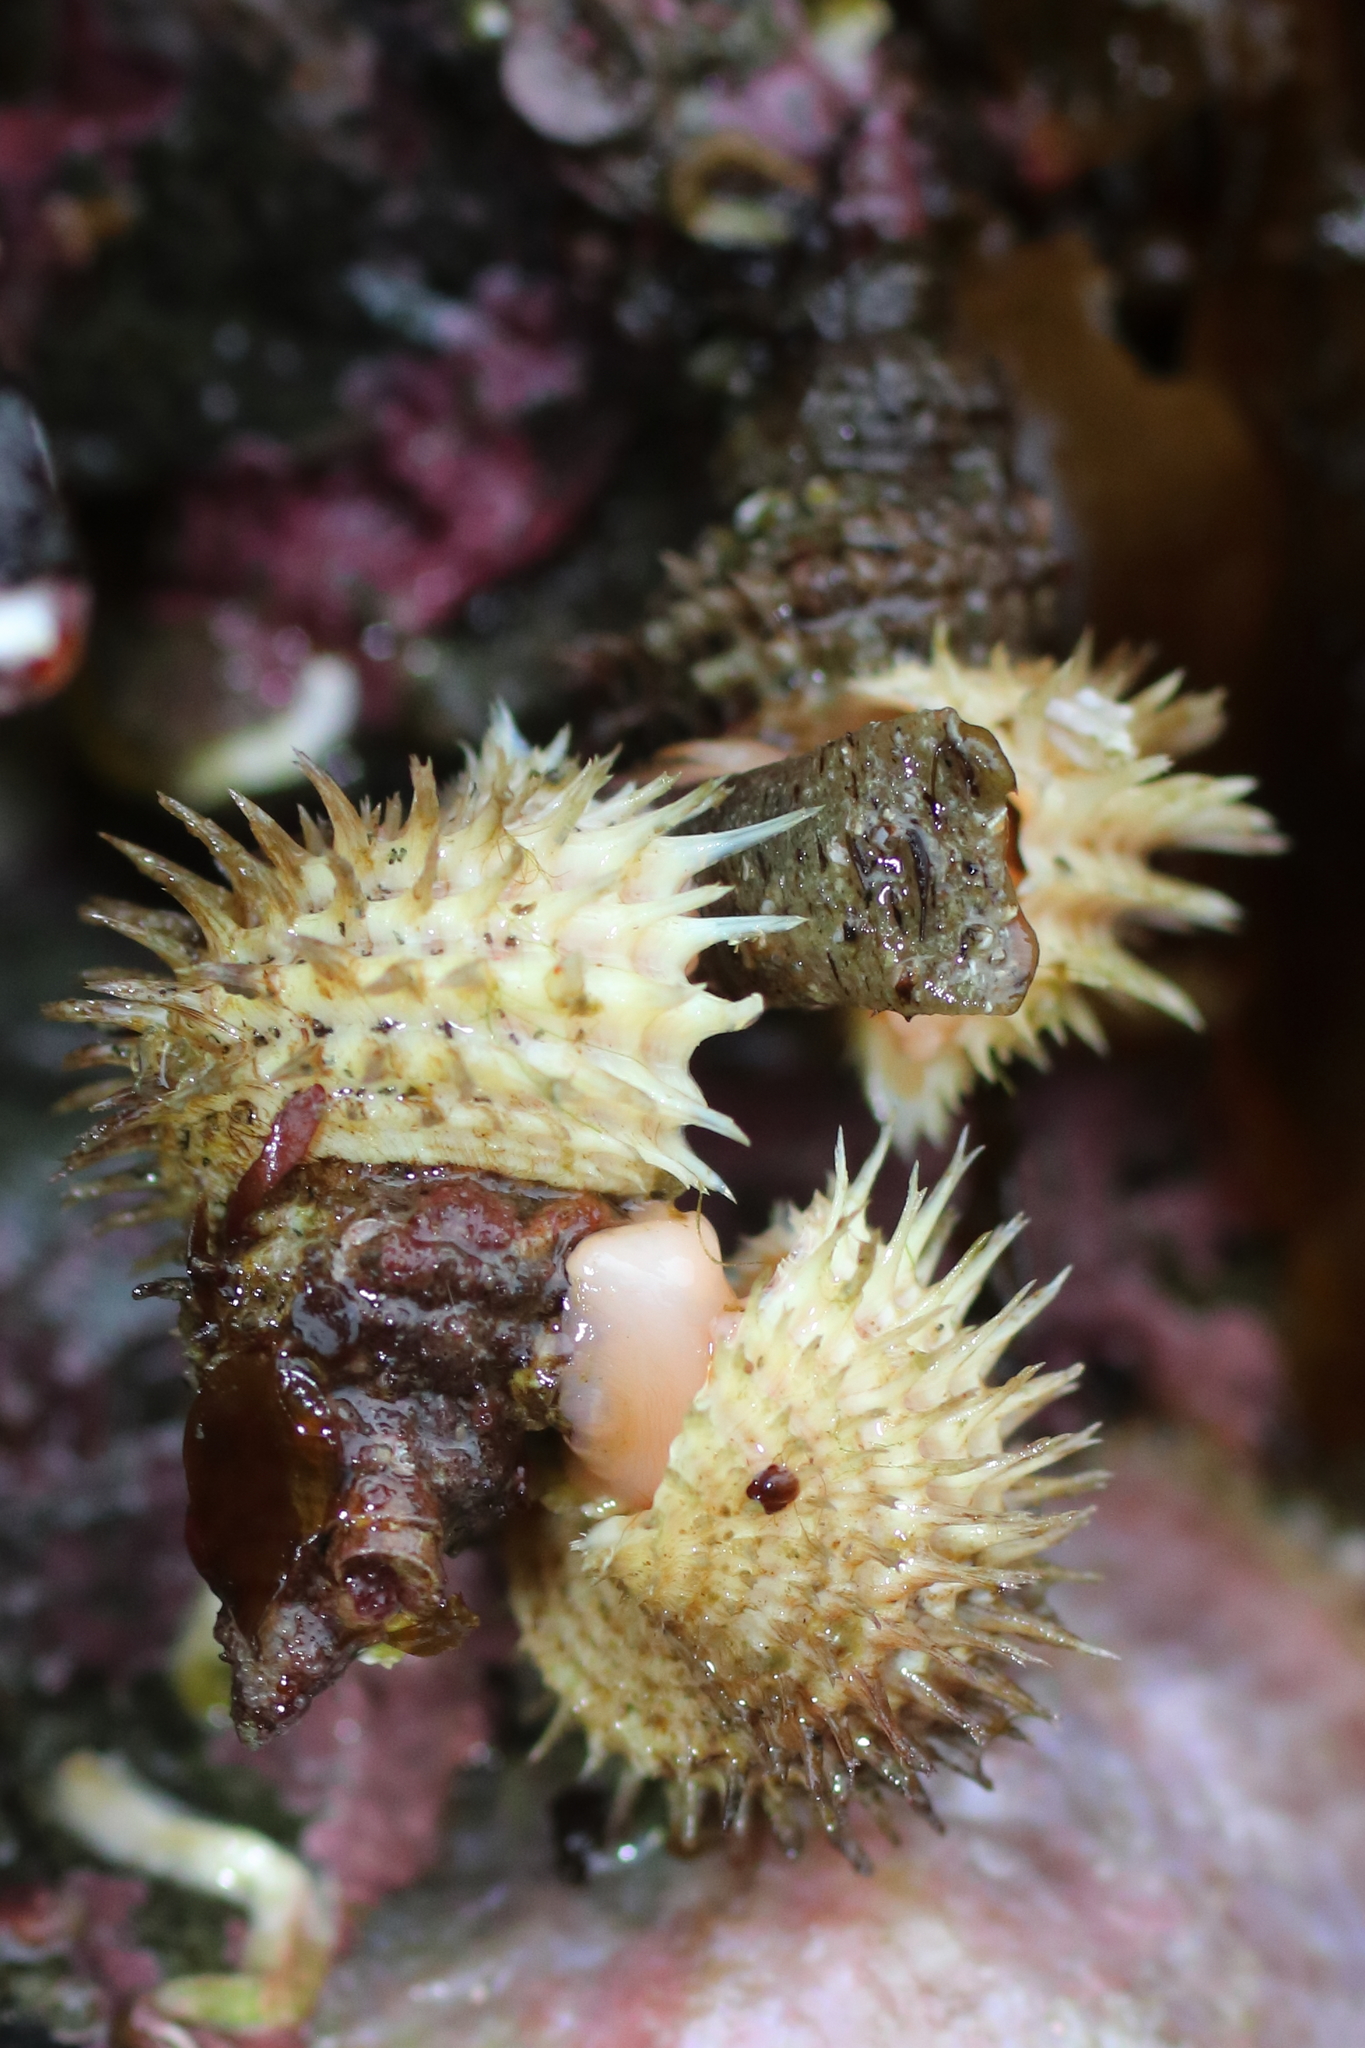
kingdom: Animalia
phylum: Mollusca
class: Gastropoda
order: Littorinimorpha
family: Capulidae
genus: Trichotropis
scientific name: Trichotropis cancellata
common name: Cancellate hairysnail
